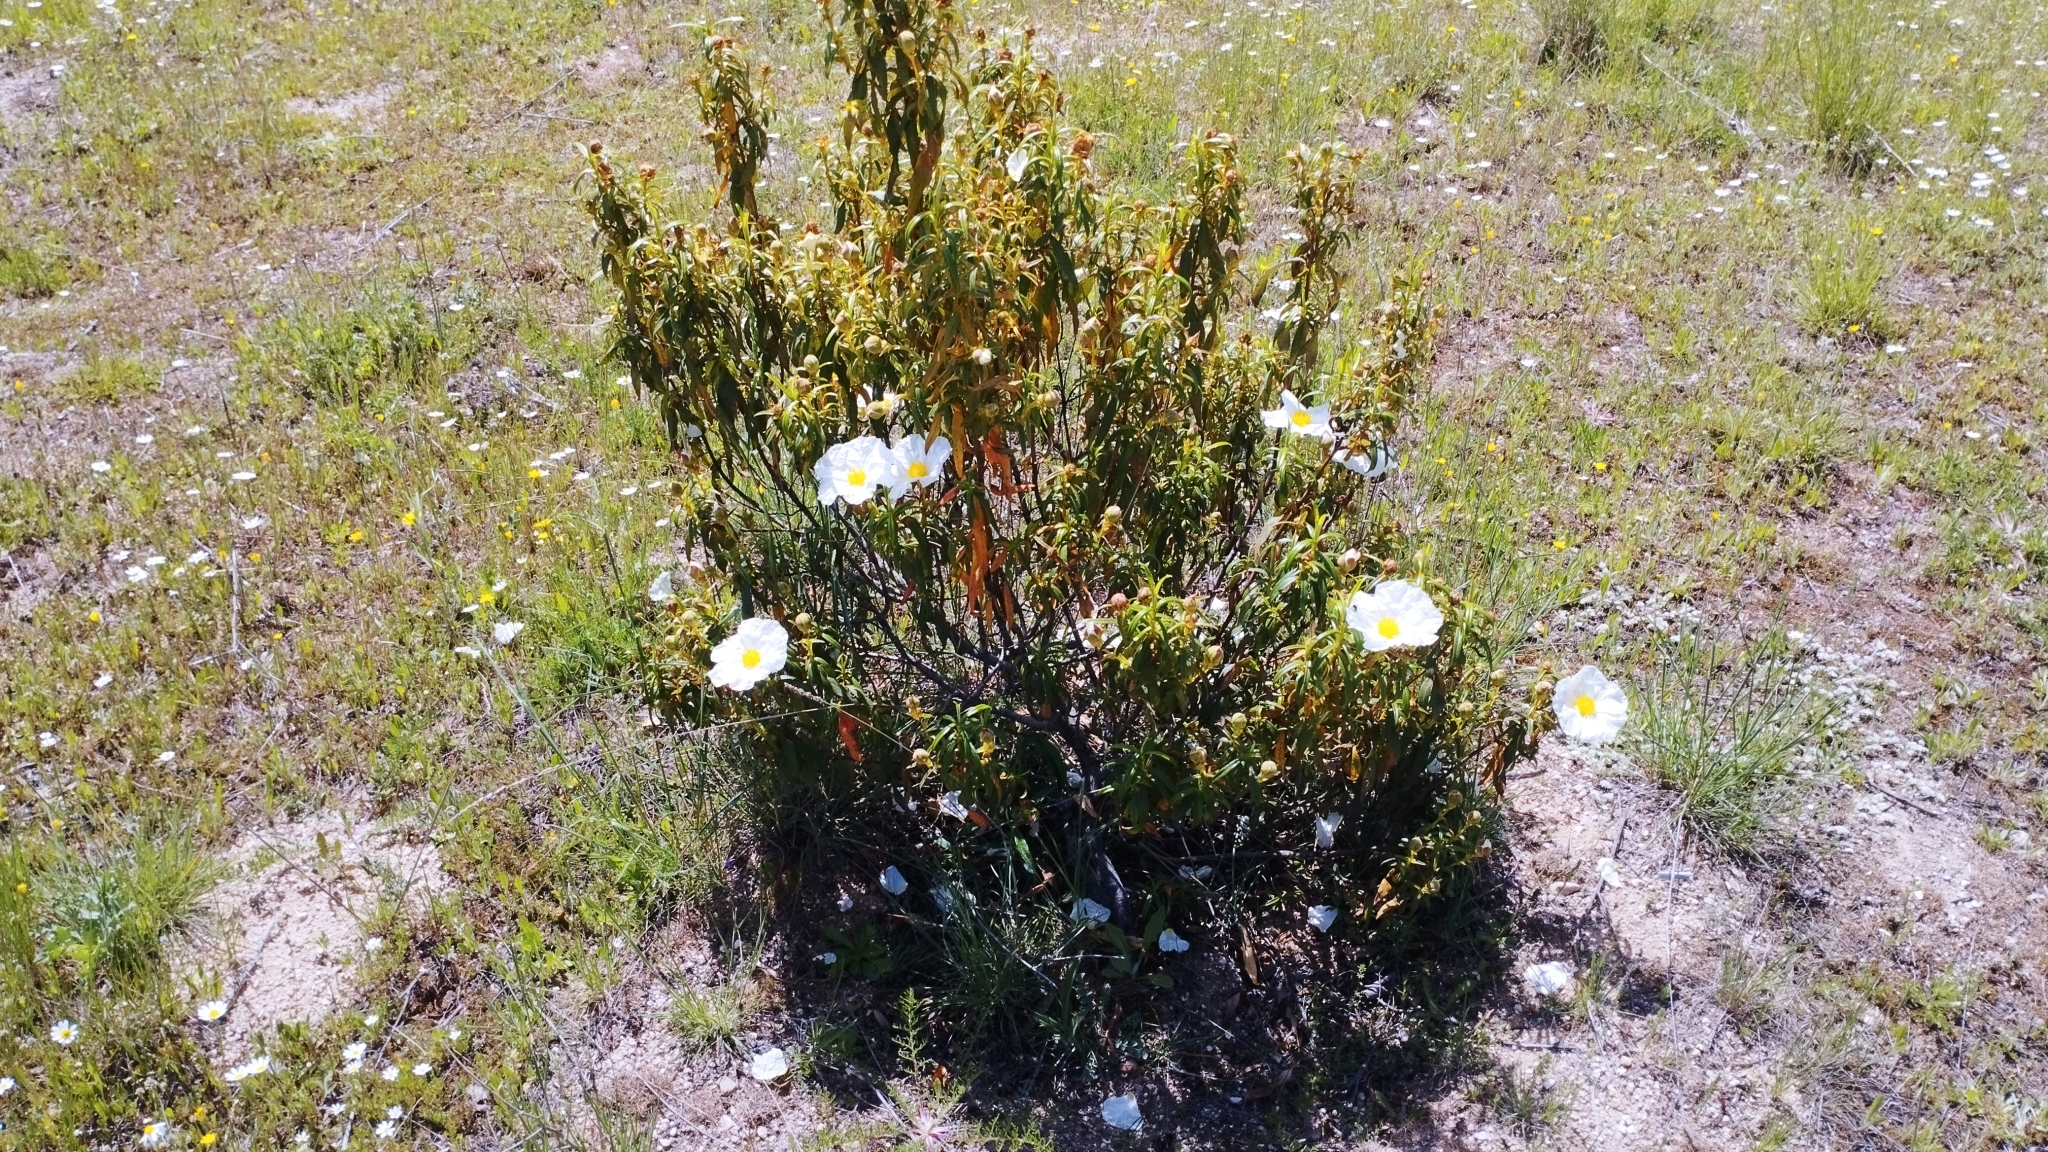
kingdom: Plantae
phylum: Tracheophyta
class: Magnoliopsida
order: Malvales
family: Cistaceae
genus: Cistus
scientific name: Cistus ladanifer
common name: Common gum cistus
